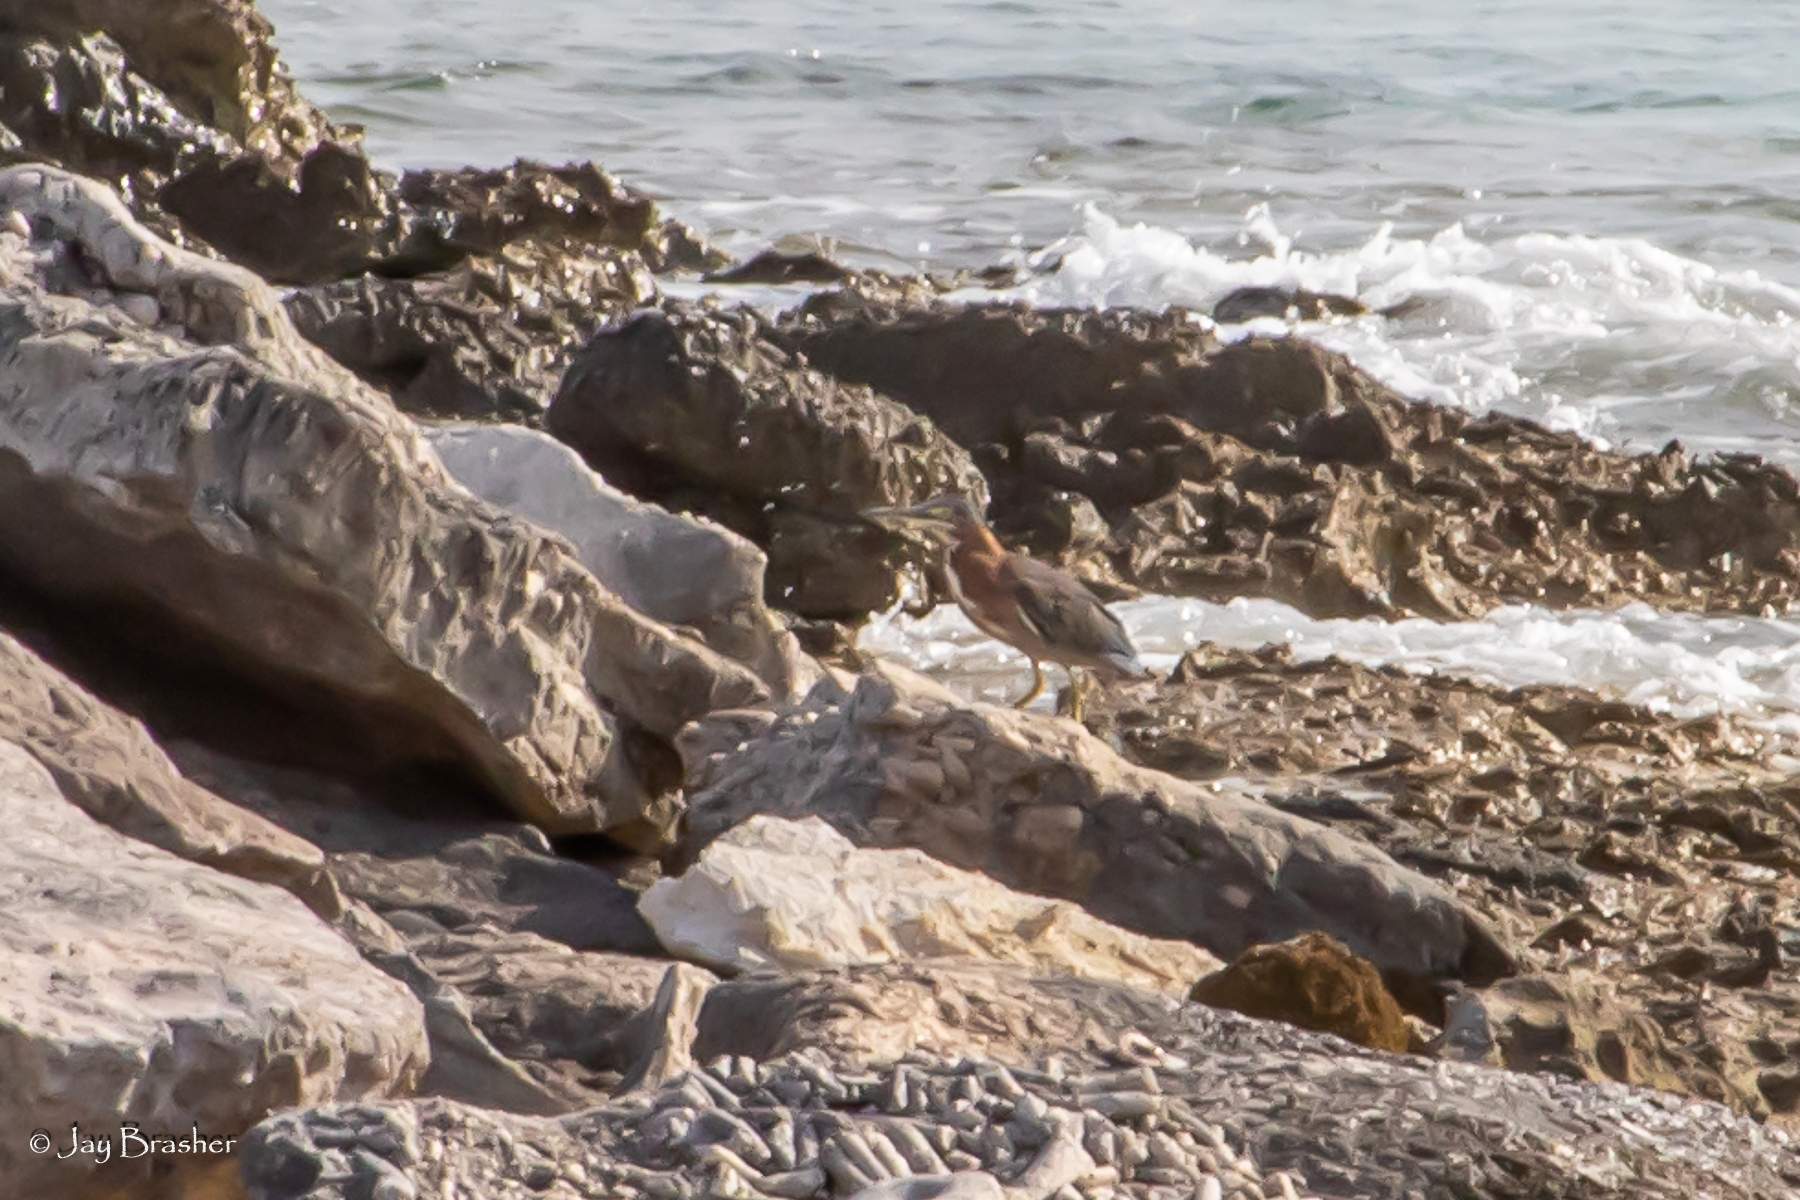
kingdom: Animalia
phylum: Chordata
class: Aves
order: Pelecaniformes
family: Ardeidae
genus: Butorides
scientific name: Butorides virescens
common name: Green heron
